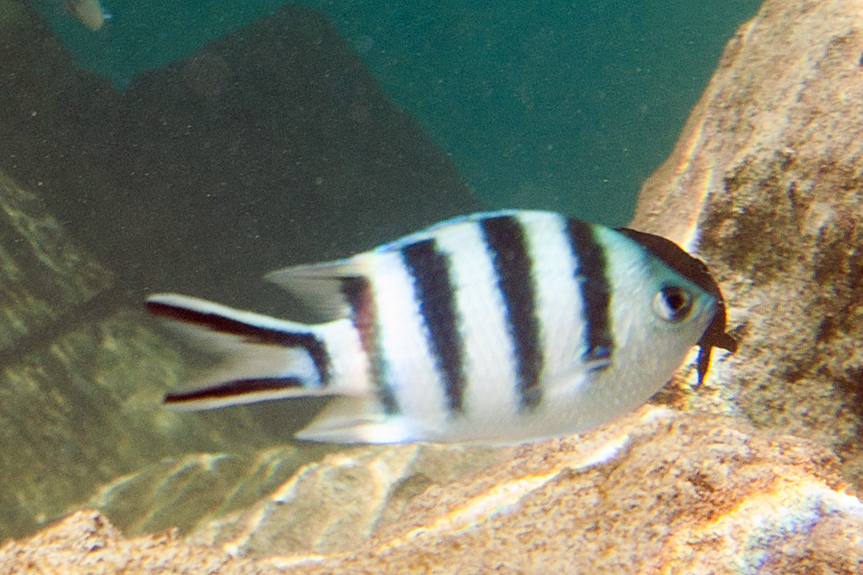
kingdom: Animalia
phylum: Chordata
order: Perciformes
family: Pomacentridae
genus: Abudefduf
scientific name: Abudefduf sexfasciatus
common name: Scissortail sergeant
